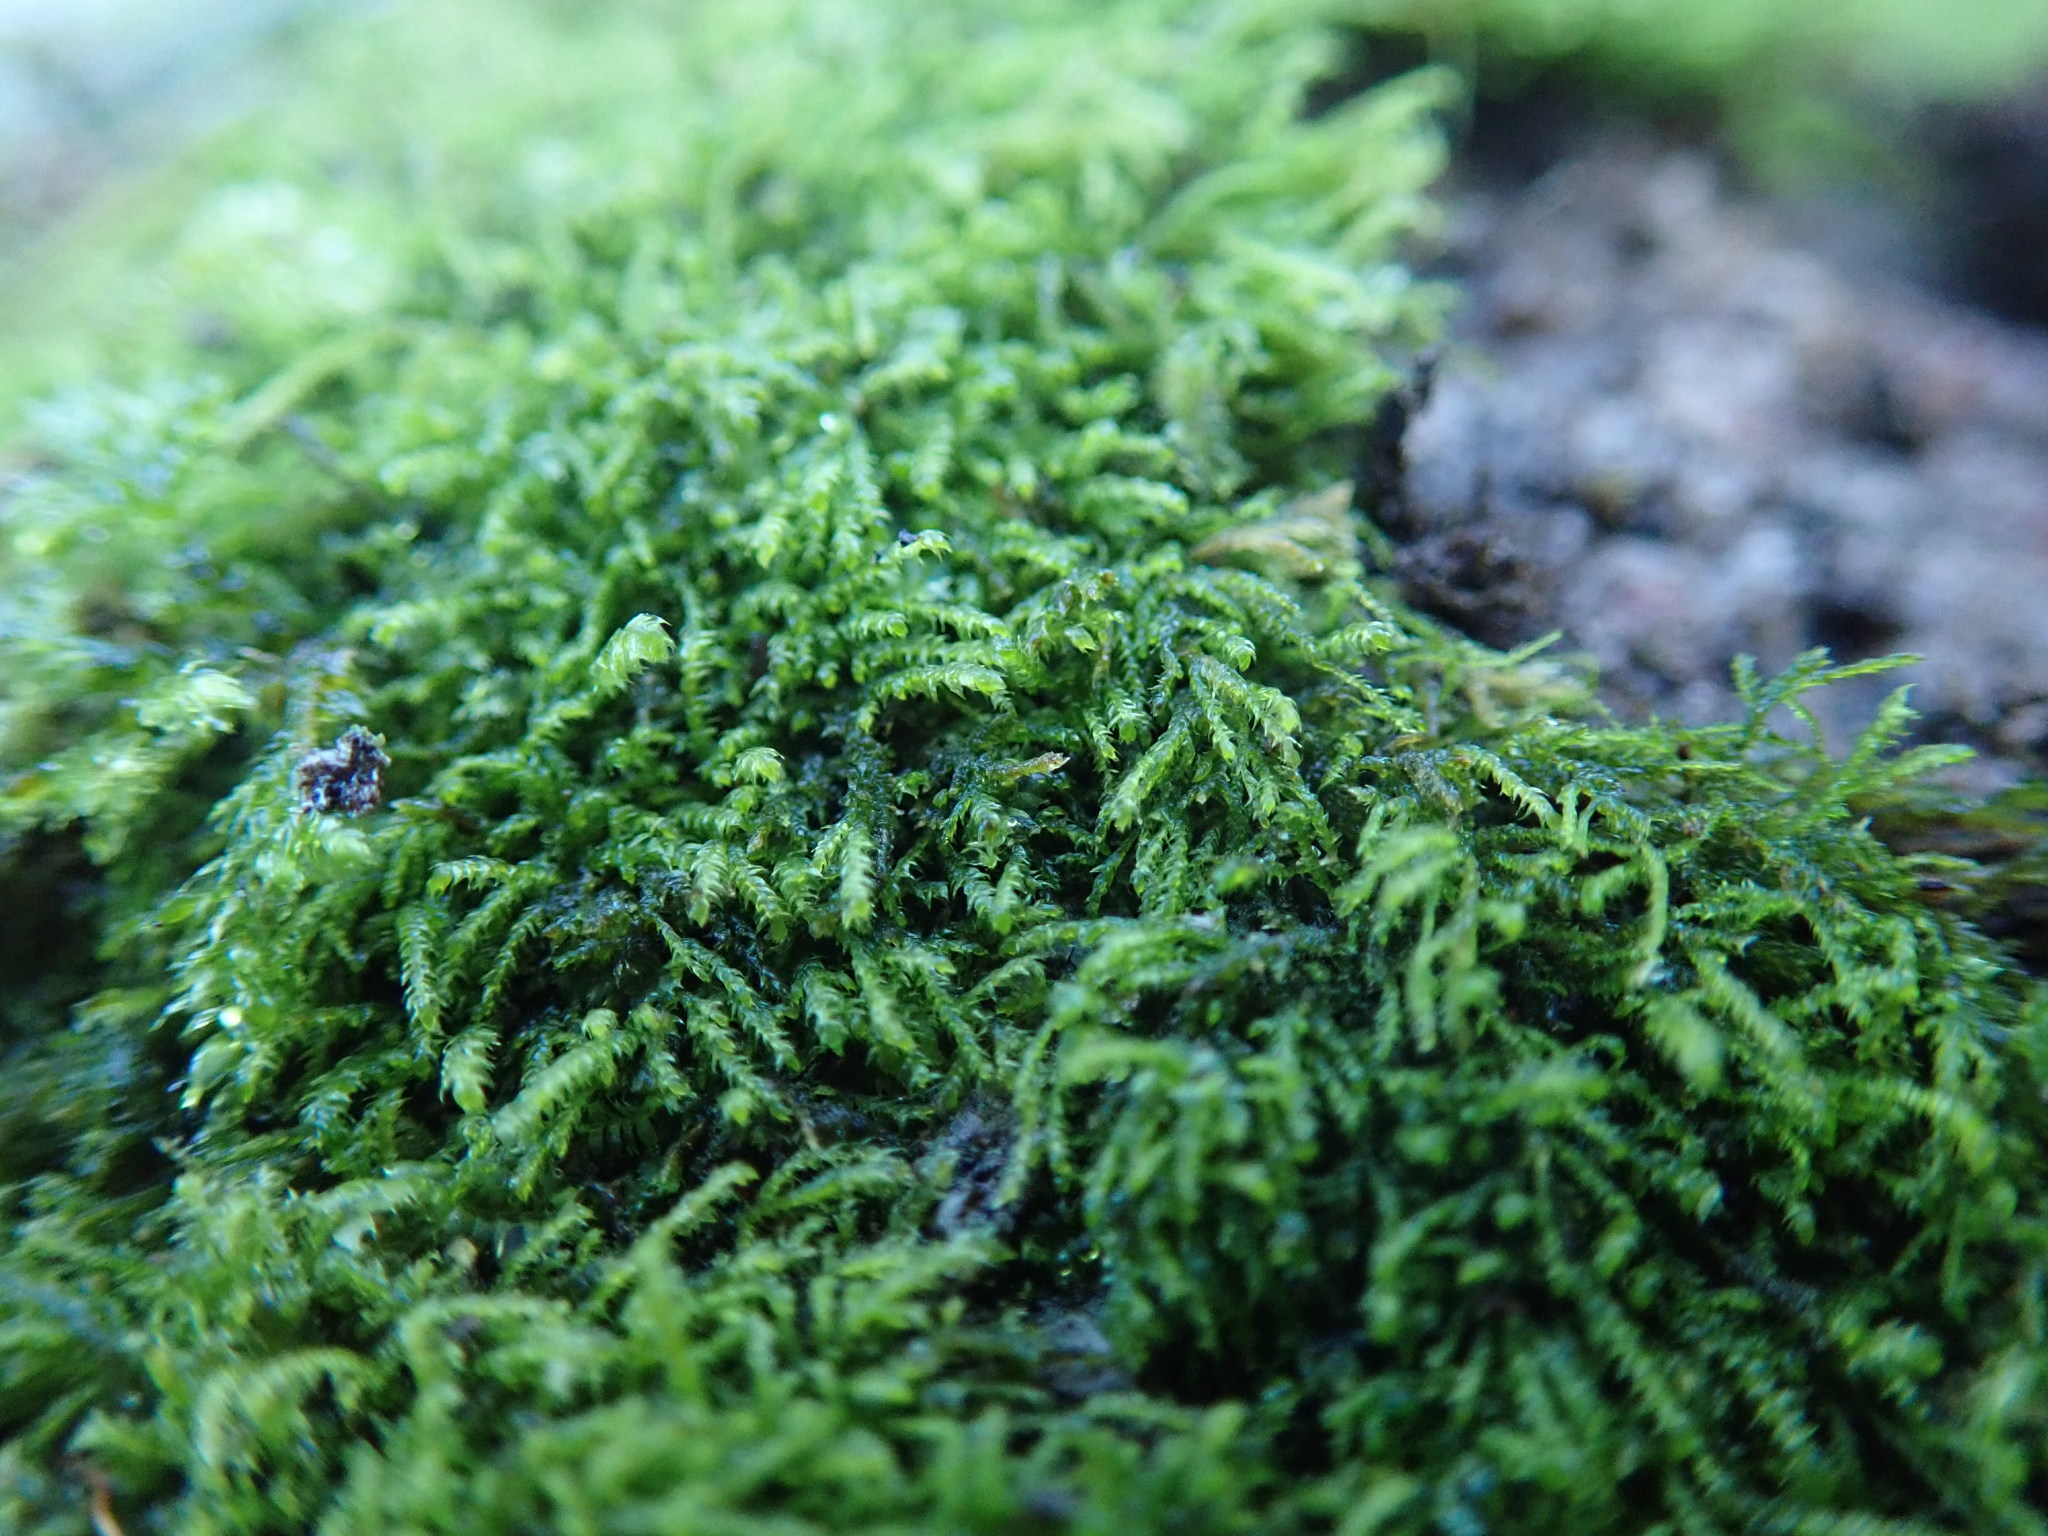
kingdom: Plantae
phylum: Bryophyta
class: Bryopsida
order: Hypnales
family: Lembophyllaceae
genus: Heterocladium
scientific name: Heterocladium macounii
